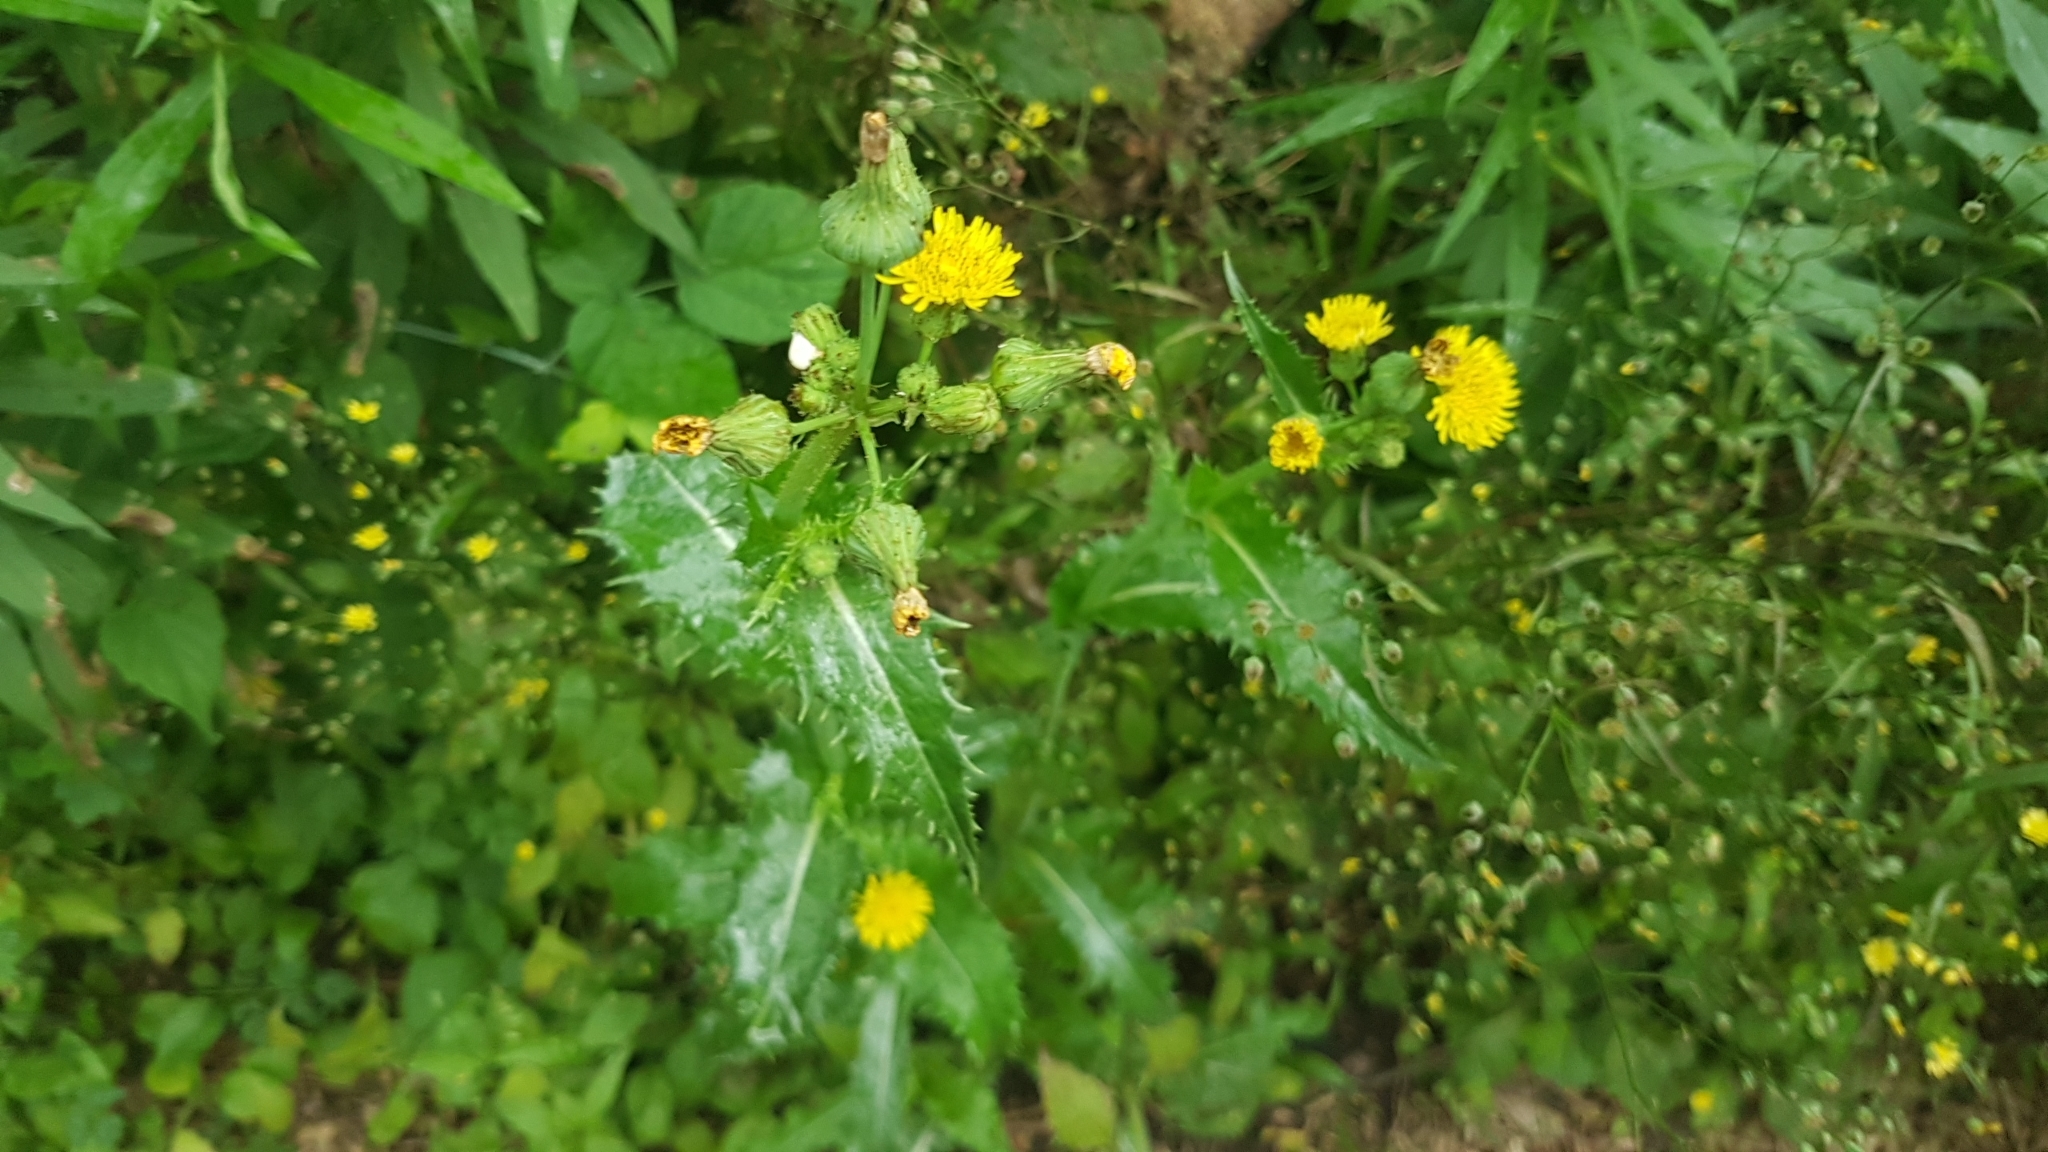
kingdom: Plantae
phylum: Tracheophyta
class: Magnoliopsida
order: Asterales
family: Asteraceae
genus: Sonchus
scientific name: Sonchus asper
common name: Prickly sow-thistle
